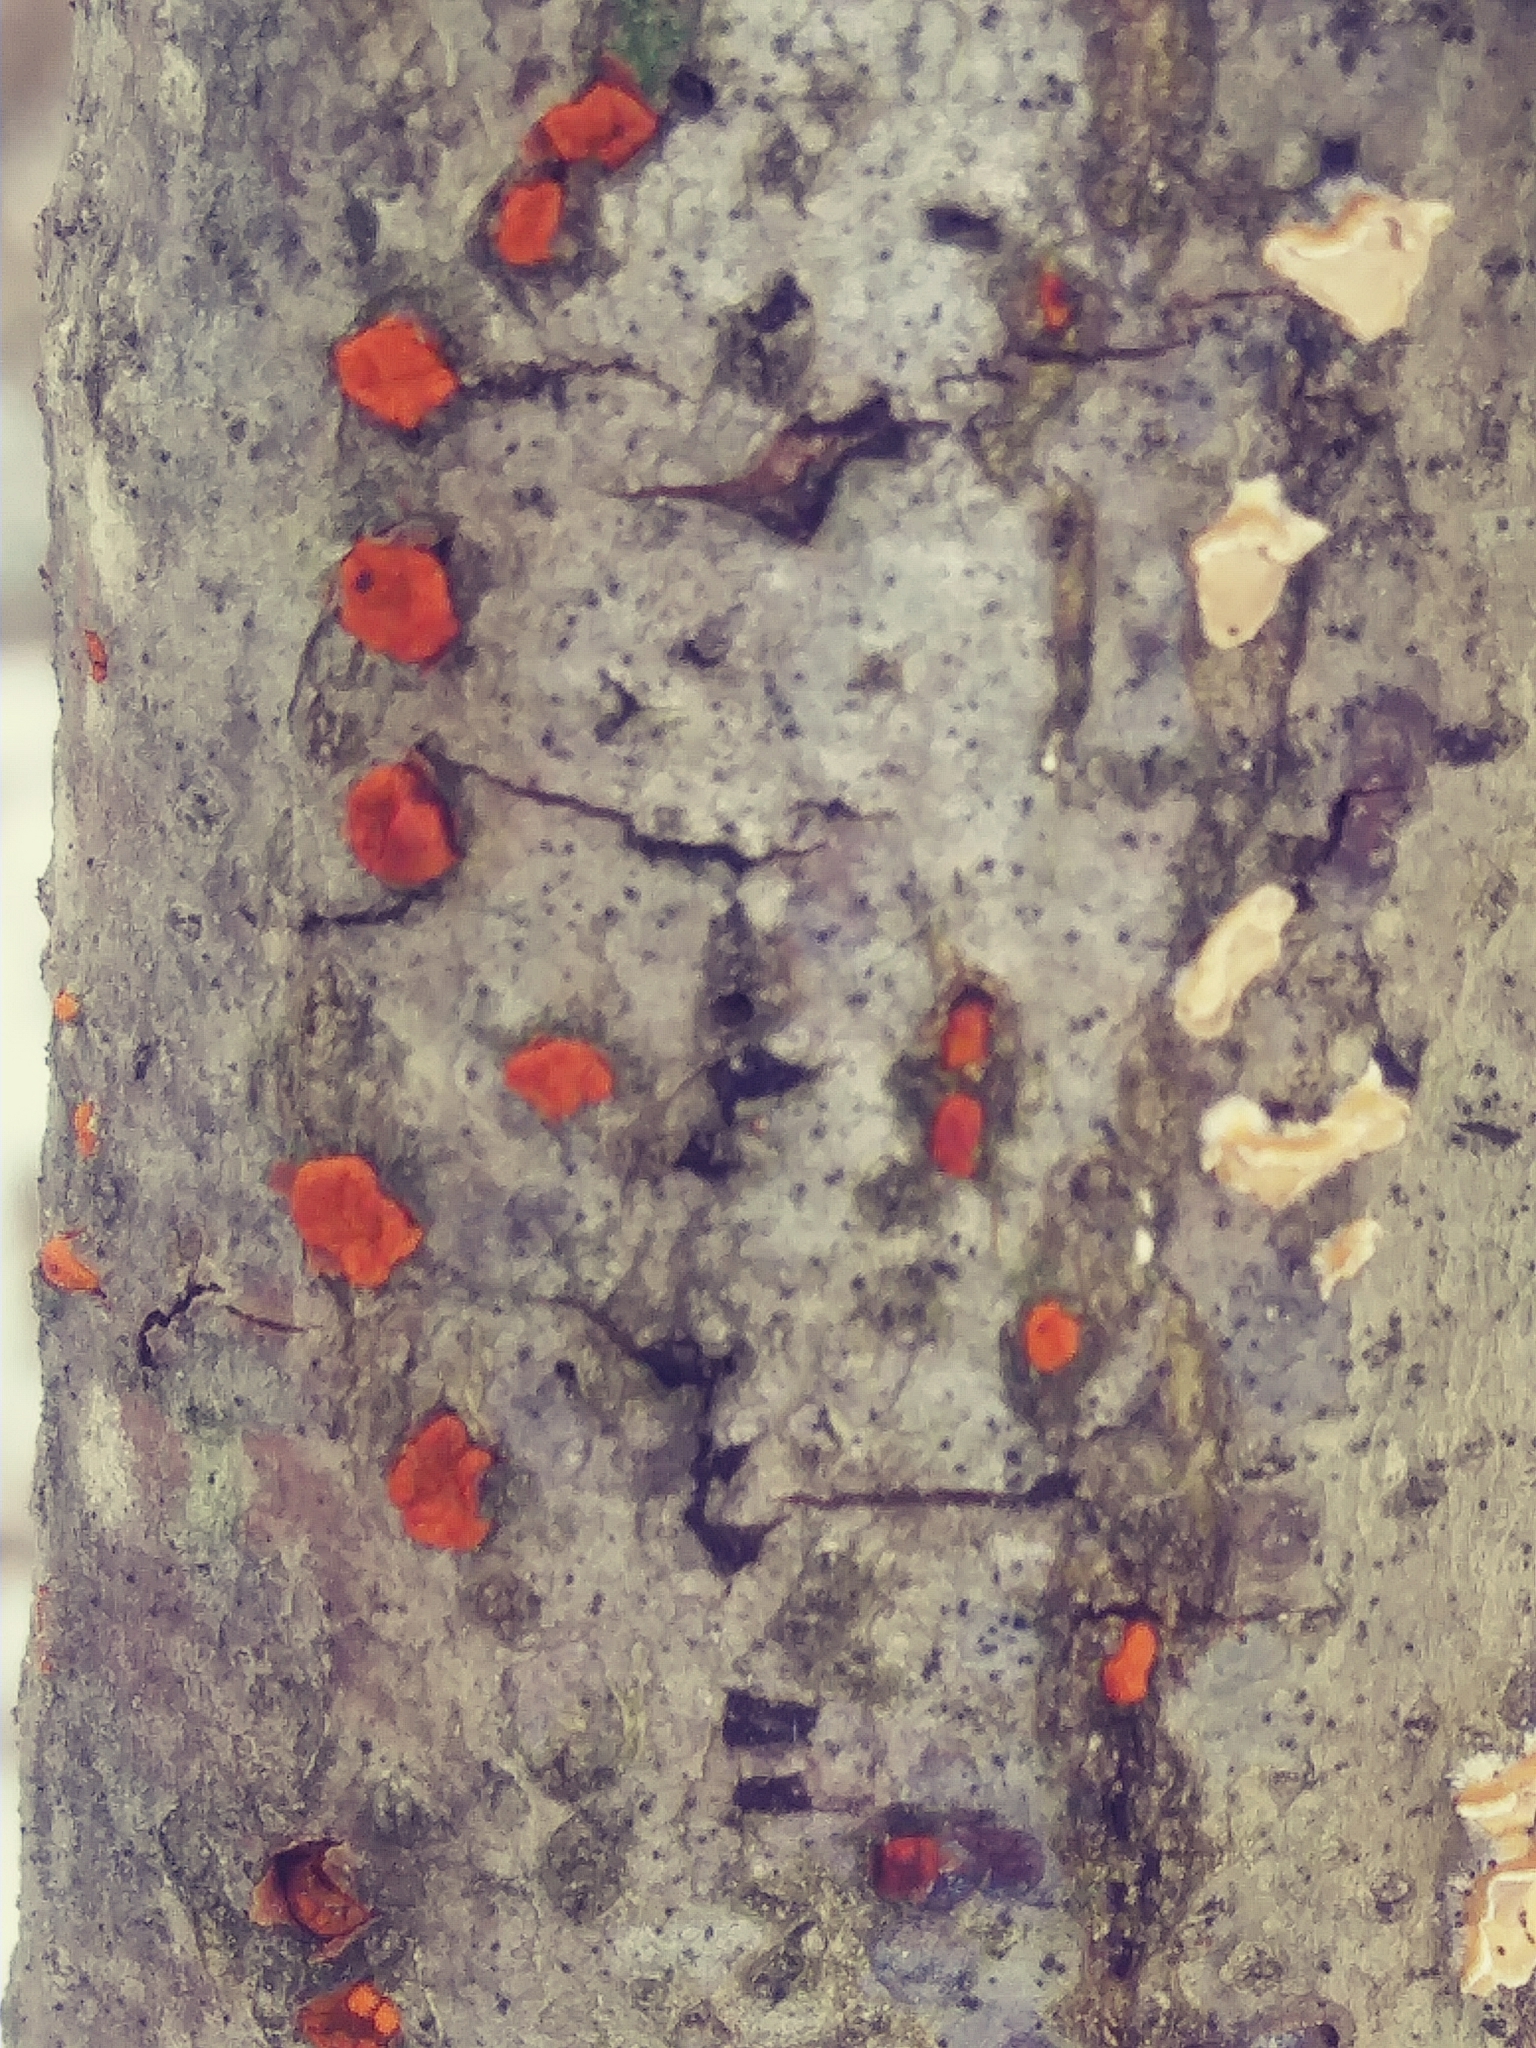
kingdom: Fungi
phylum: Ascomycota
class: Sordariomycetes
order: Diaporthales
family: Cryphonectriaceae
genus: Amphilogia
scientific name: Amphilogia gyrosa
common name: Orange hobnail canker
